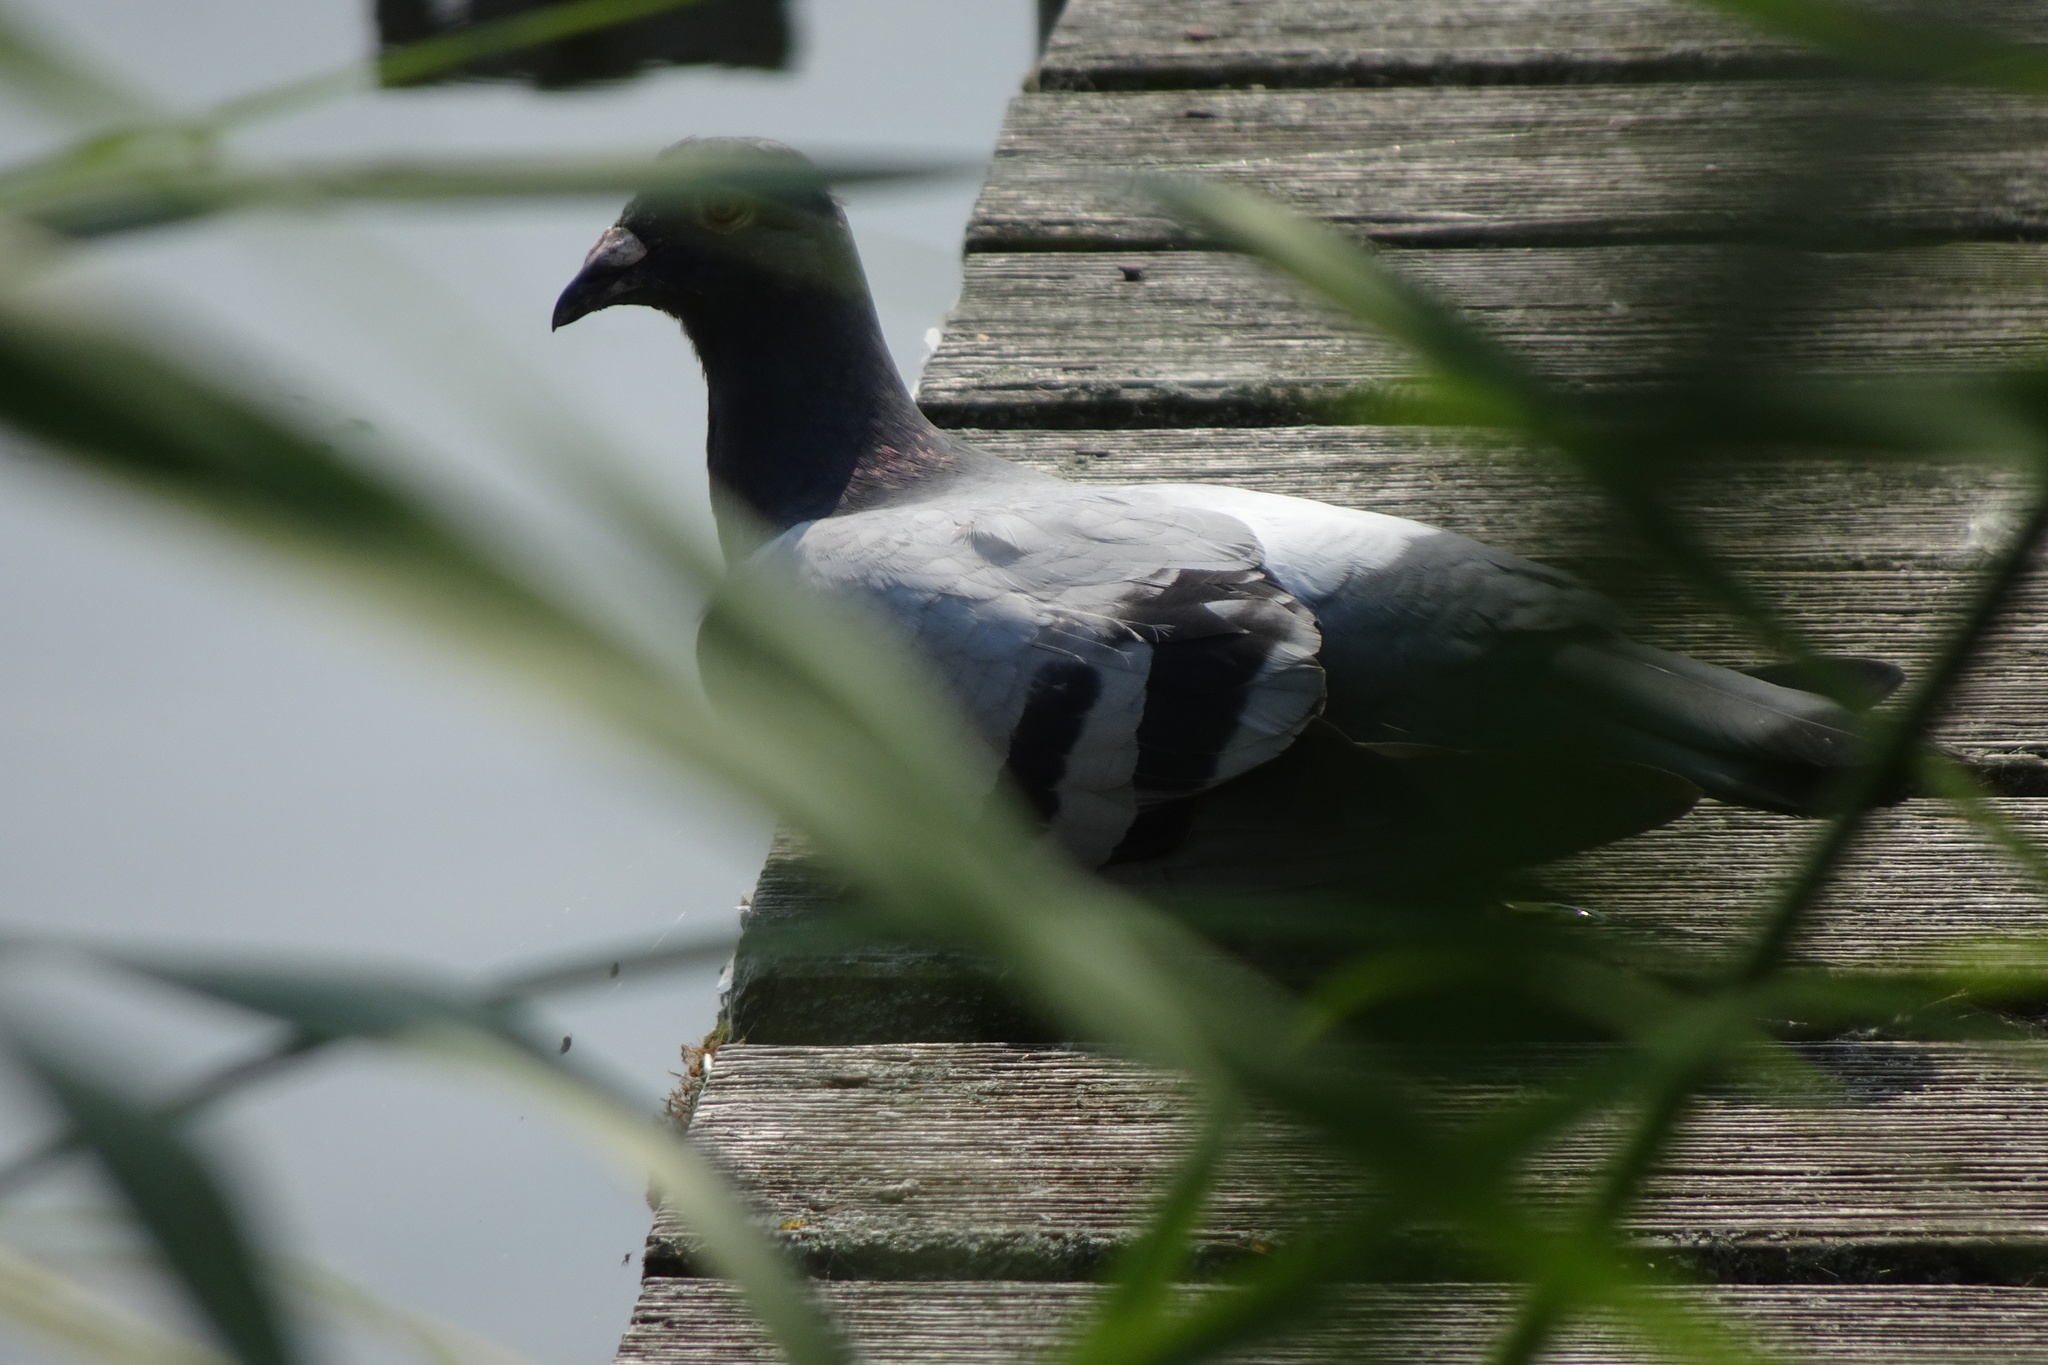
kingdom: Animalia
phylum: Chordata
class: Aves
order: Columbiformes
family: Columbidae
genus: Columba
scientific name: Columba livia
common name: Rock pigeon
